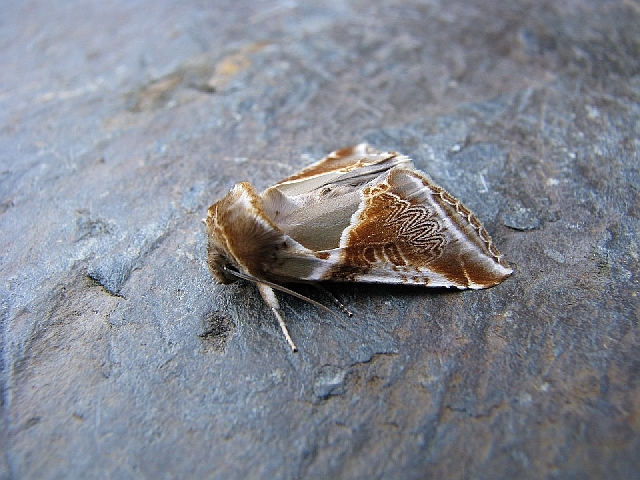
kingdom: Animalia
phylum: Arthropoda
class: Insecta
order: Lepidoptera
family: Drepanidae
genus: Habrosyne
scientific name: Habrosyne pyritoides
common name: Buff arches
